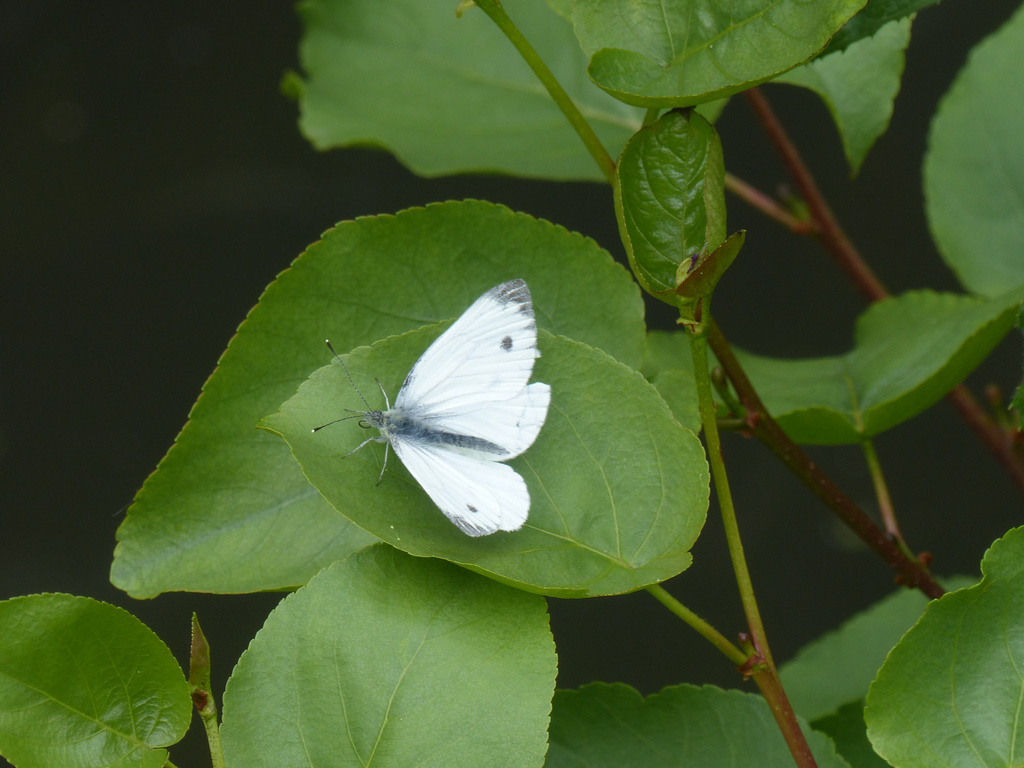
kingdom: Animalia
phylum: Arthropoda
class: Insecta
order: Lepidoptera
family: Pieridae
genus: Pieris
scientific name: Pieris napi
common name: Green-veined white
